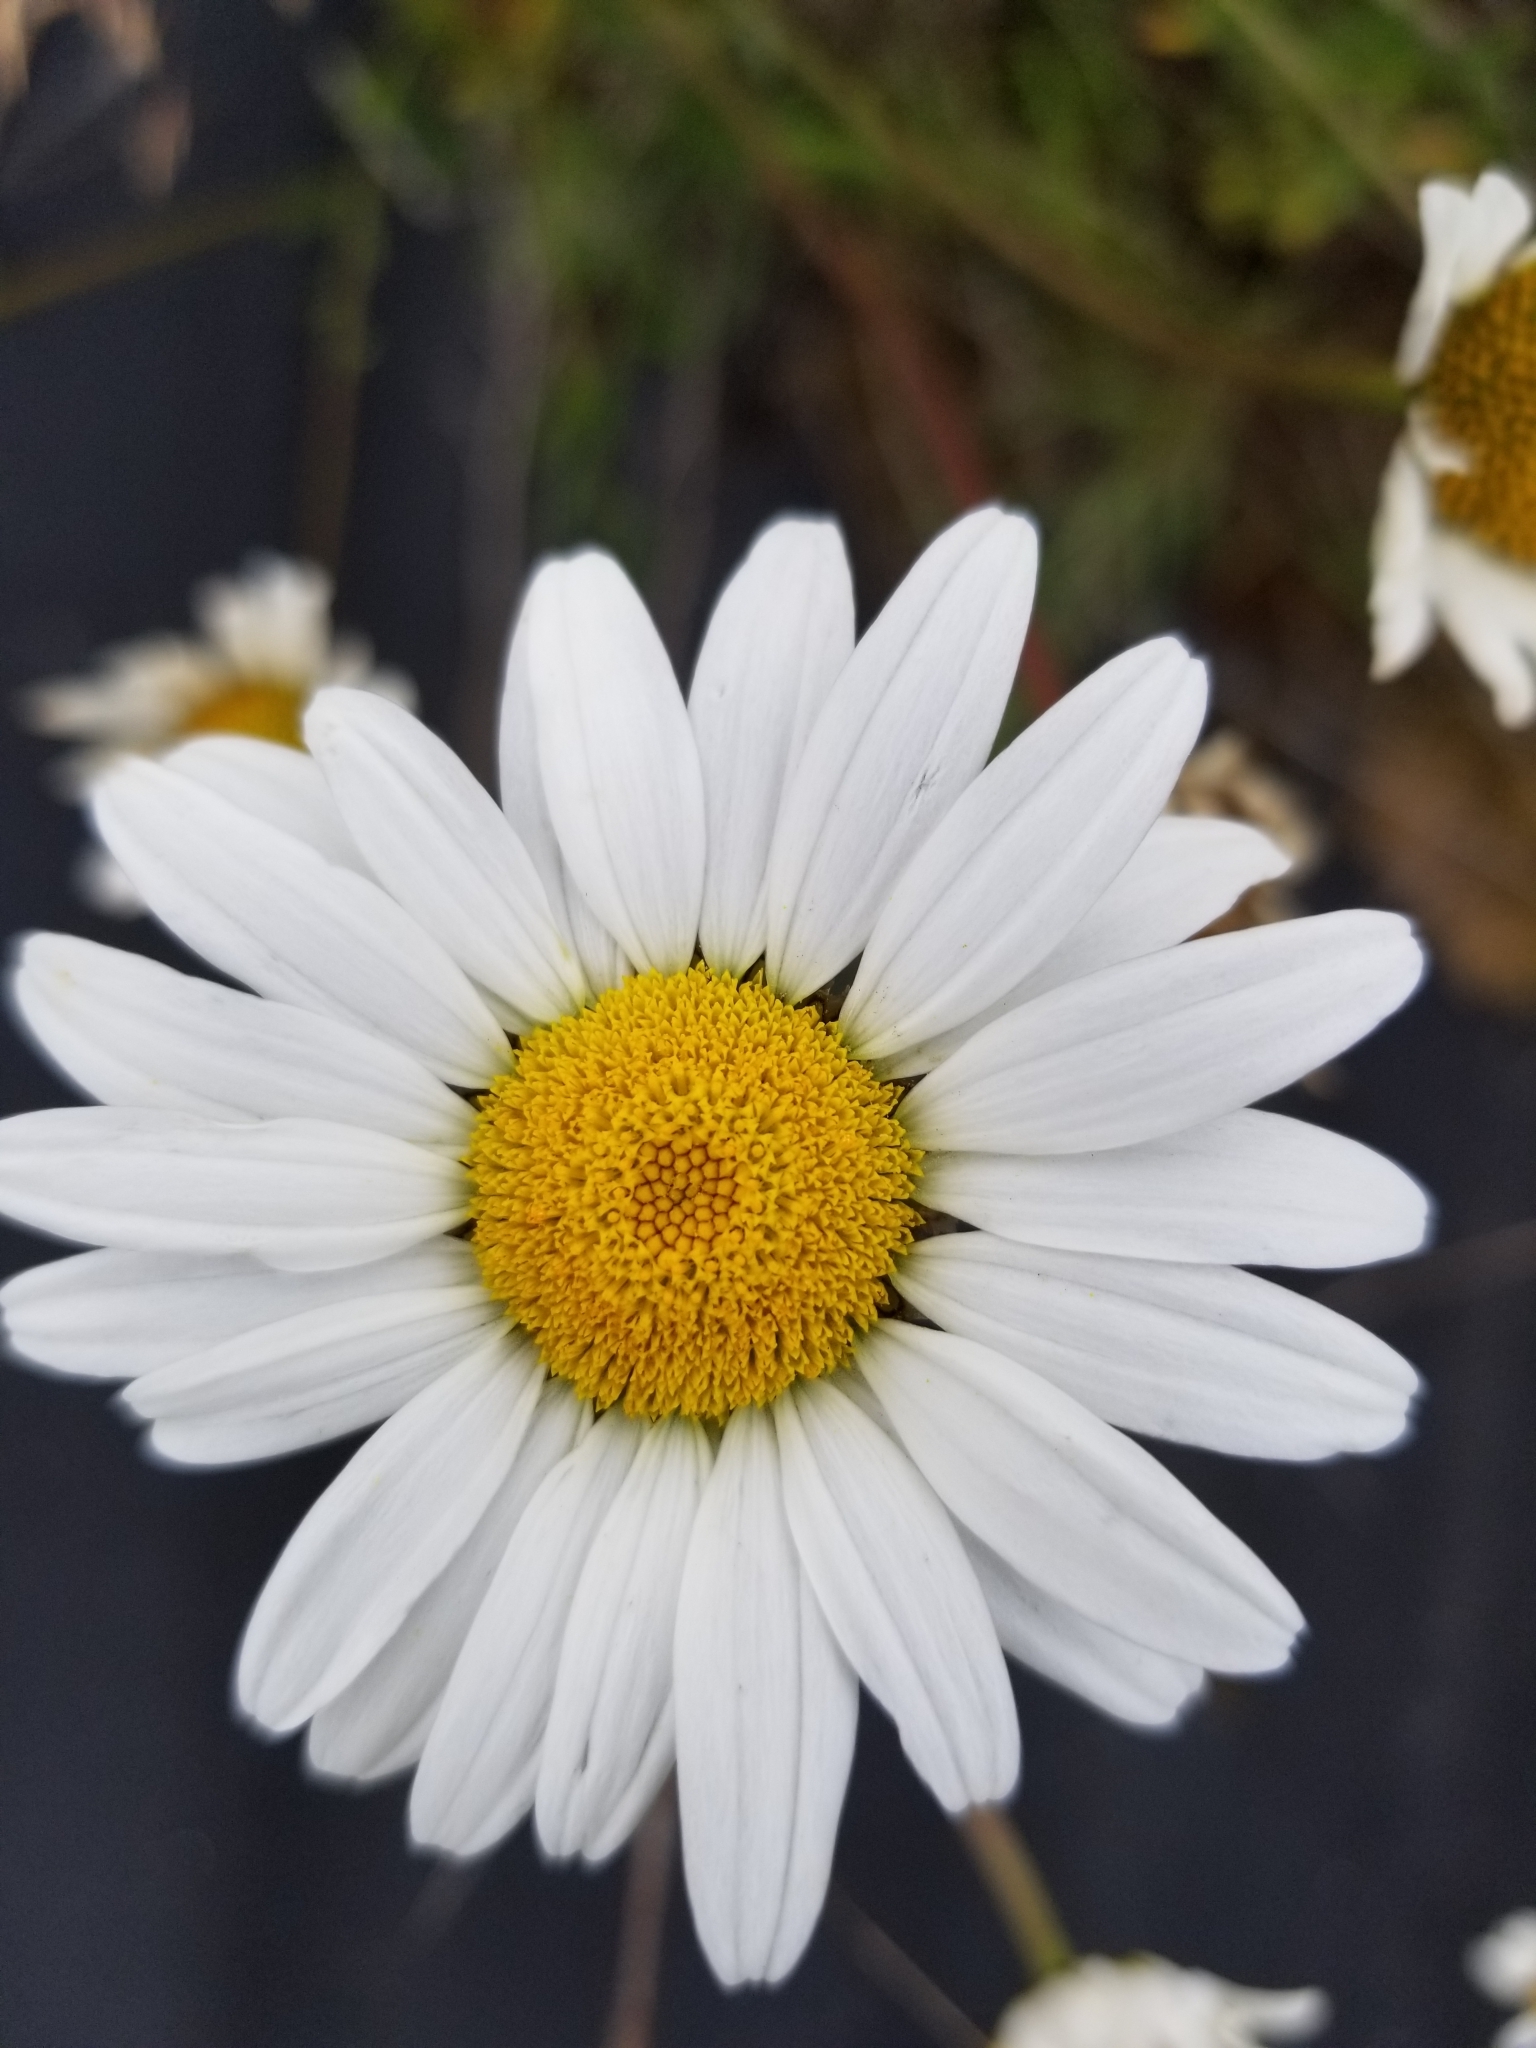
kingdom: Plantae
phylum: Tracheophyta
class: Magnoliopsida
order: Asterales
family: Asteraceae
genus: Leucanthemum
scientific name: Leucanthemum vulgare
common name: Oxeye daisy
